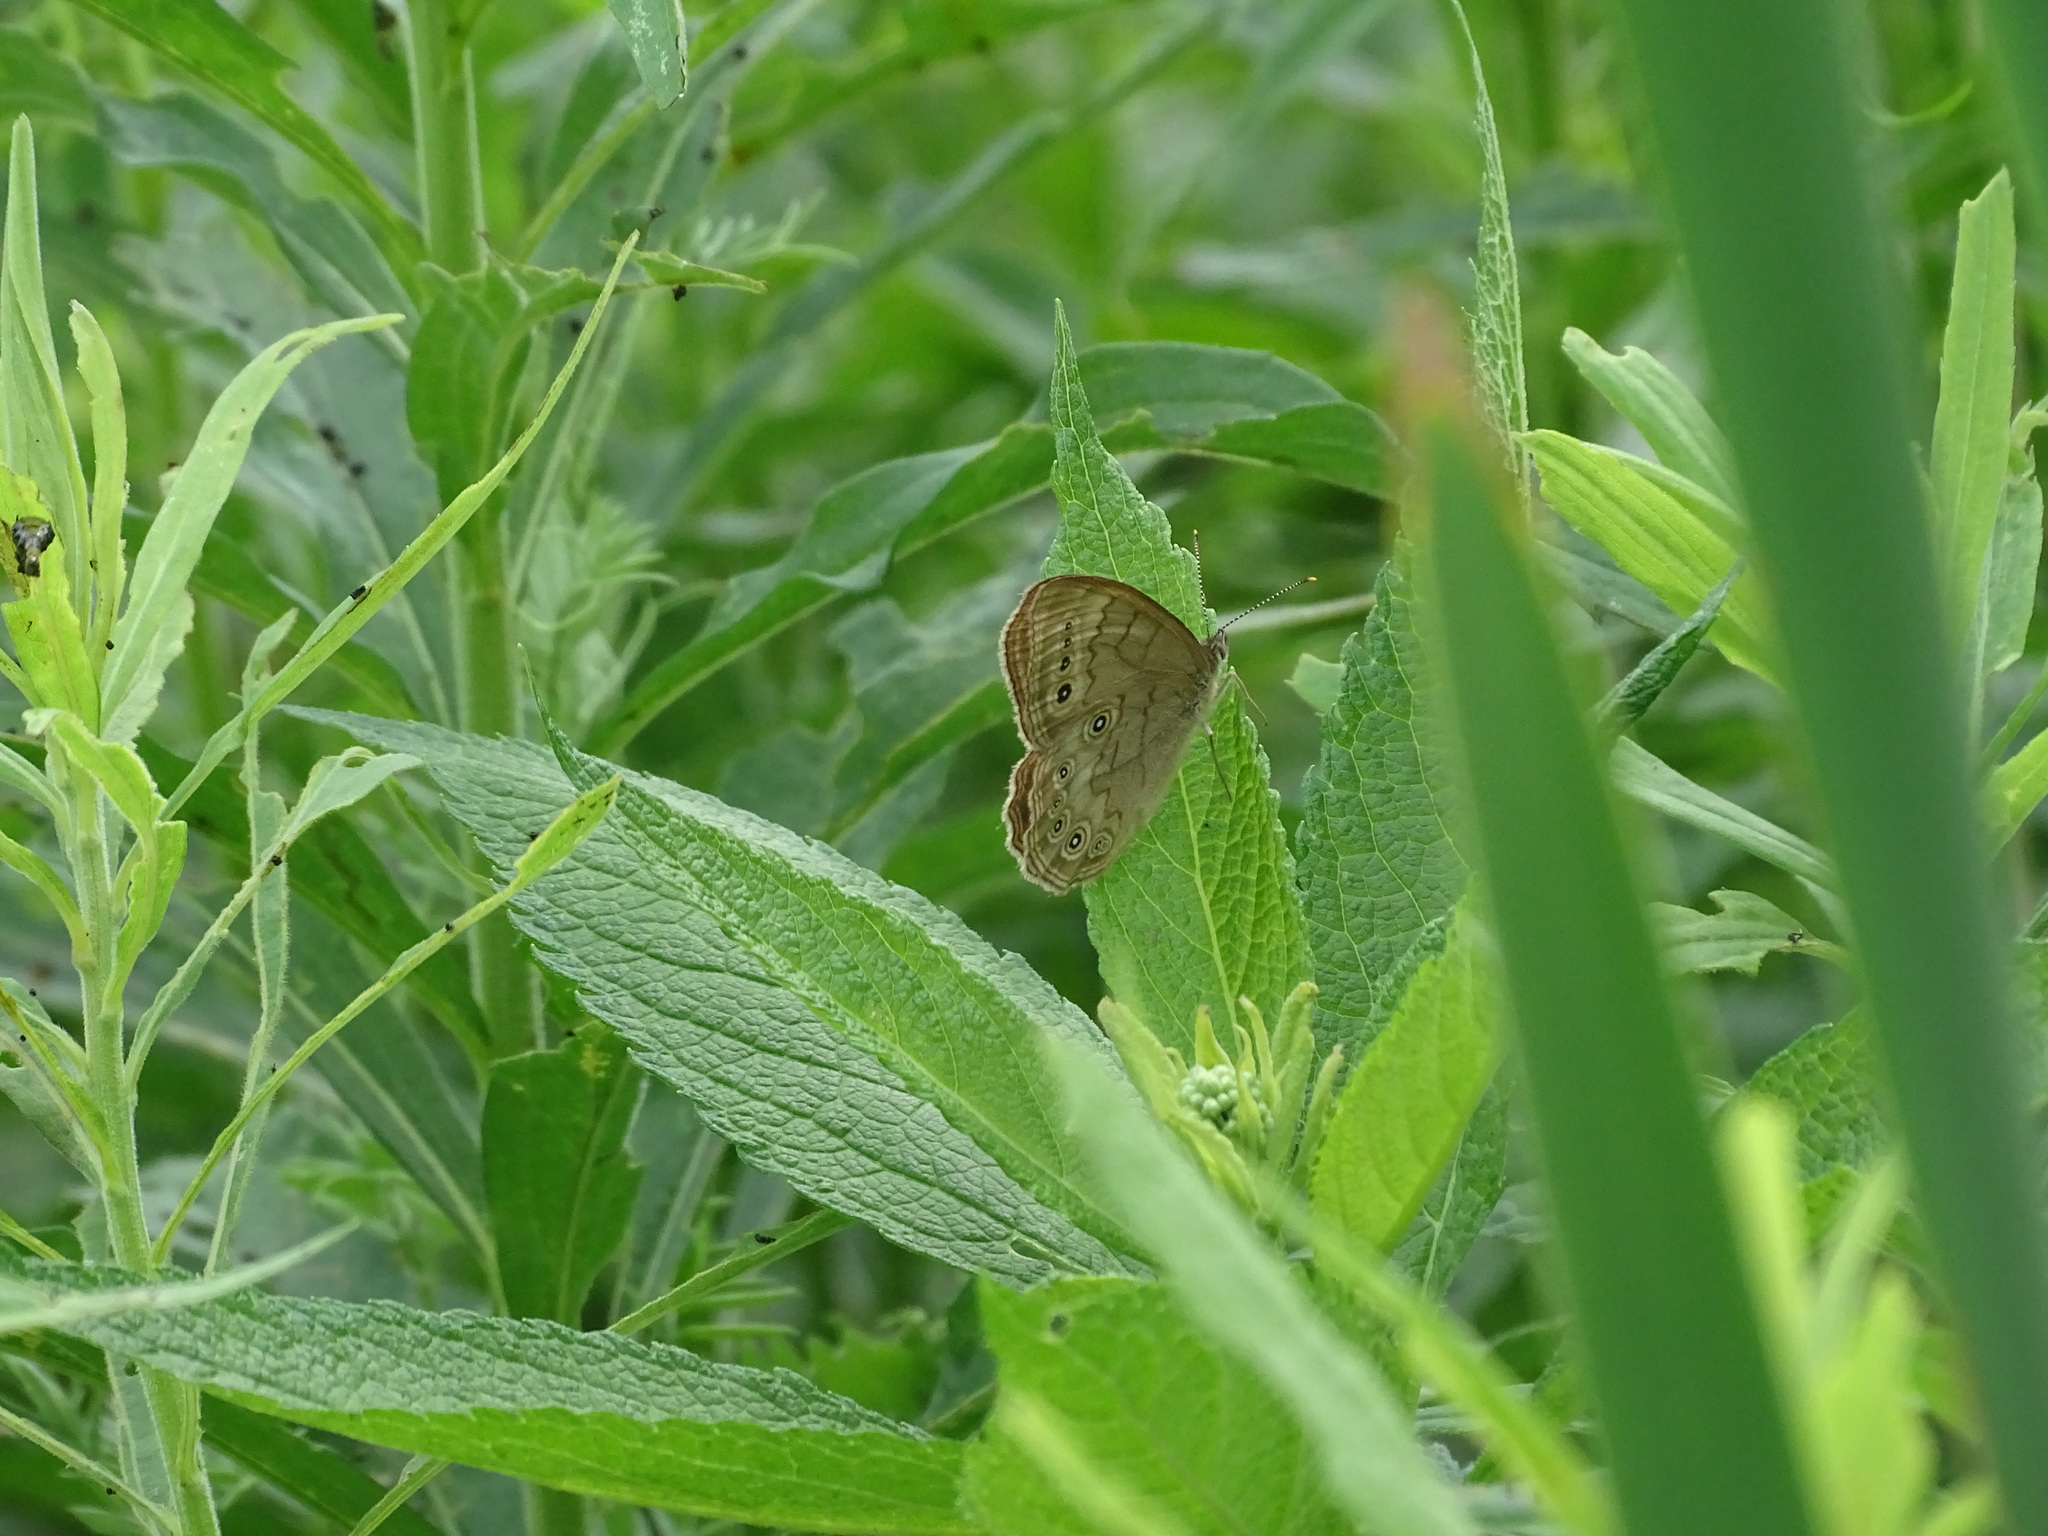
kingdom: Animalia
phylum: Arthropoda
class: Insecta
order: Lepidoptera
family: Nymphalidae
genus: Lethe
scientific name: Lethe eurydice
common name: Eyed brown
